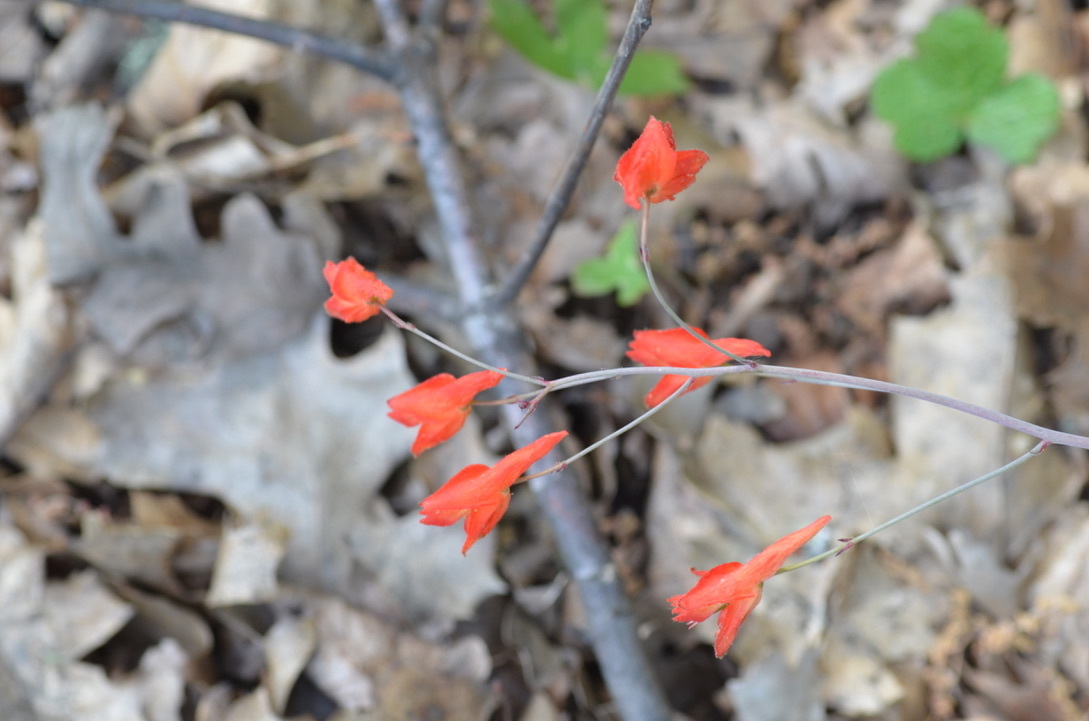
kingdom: Plantae
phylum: Tracheophyta
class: Magnoliopsida
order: Ranunculales
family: Ranunculaceae
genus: Delphinium
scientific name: Delphinium nudicaule
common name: Red larkspur
